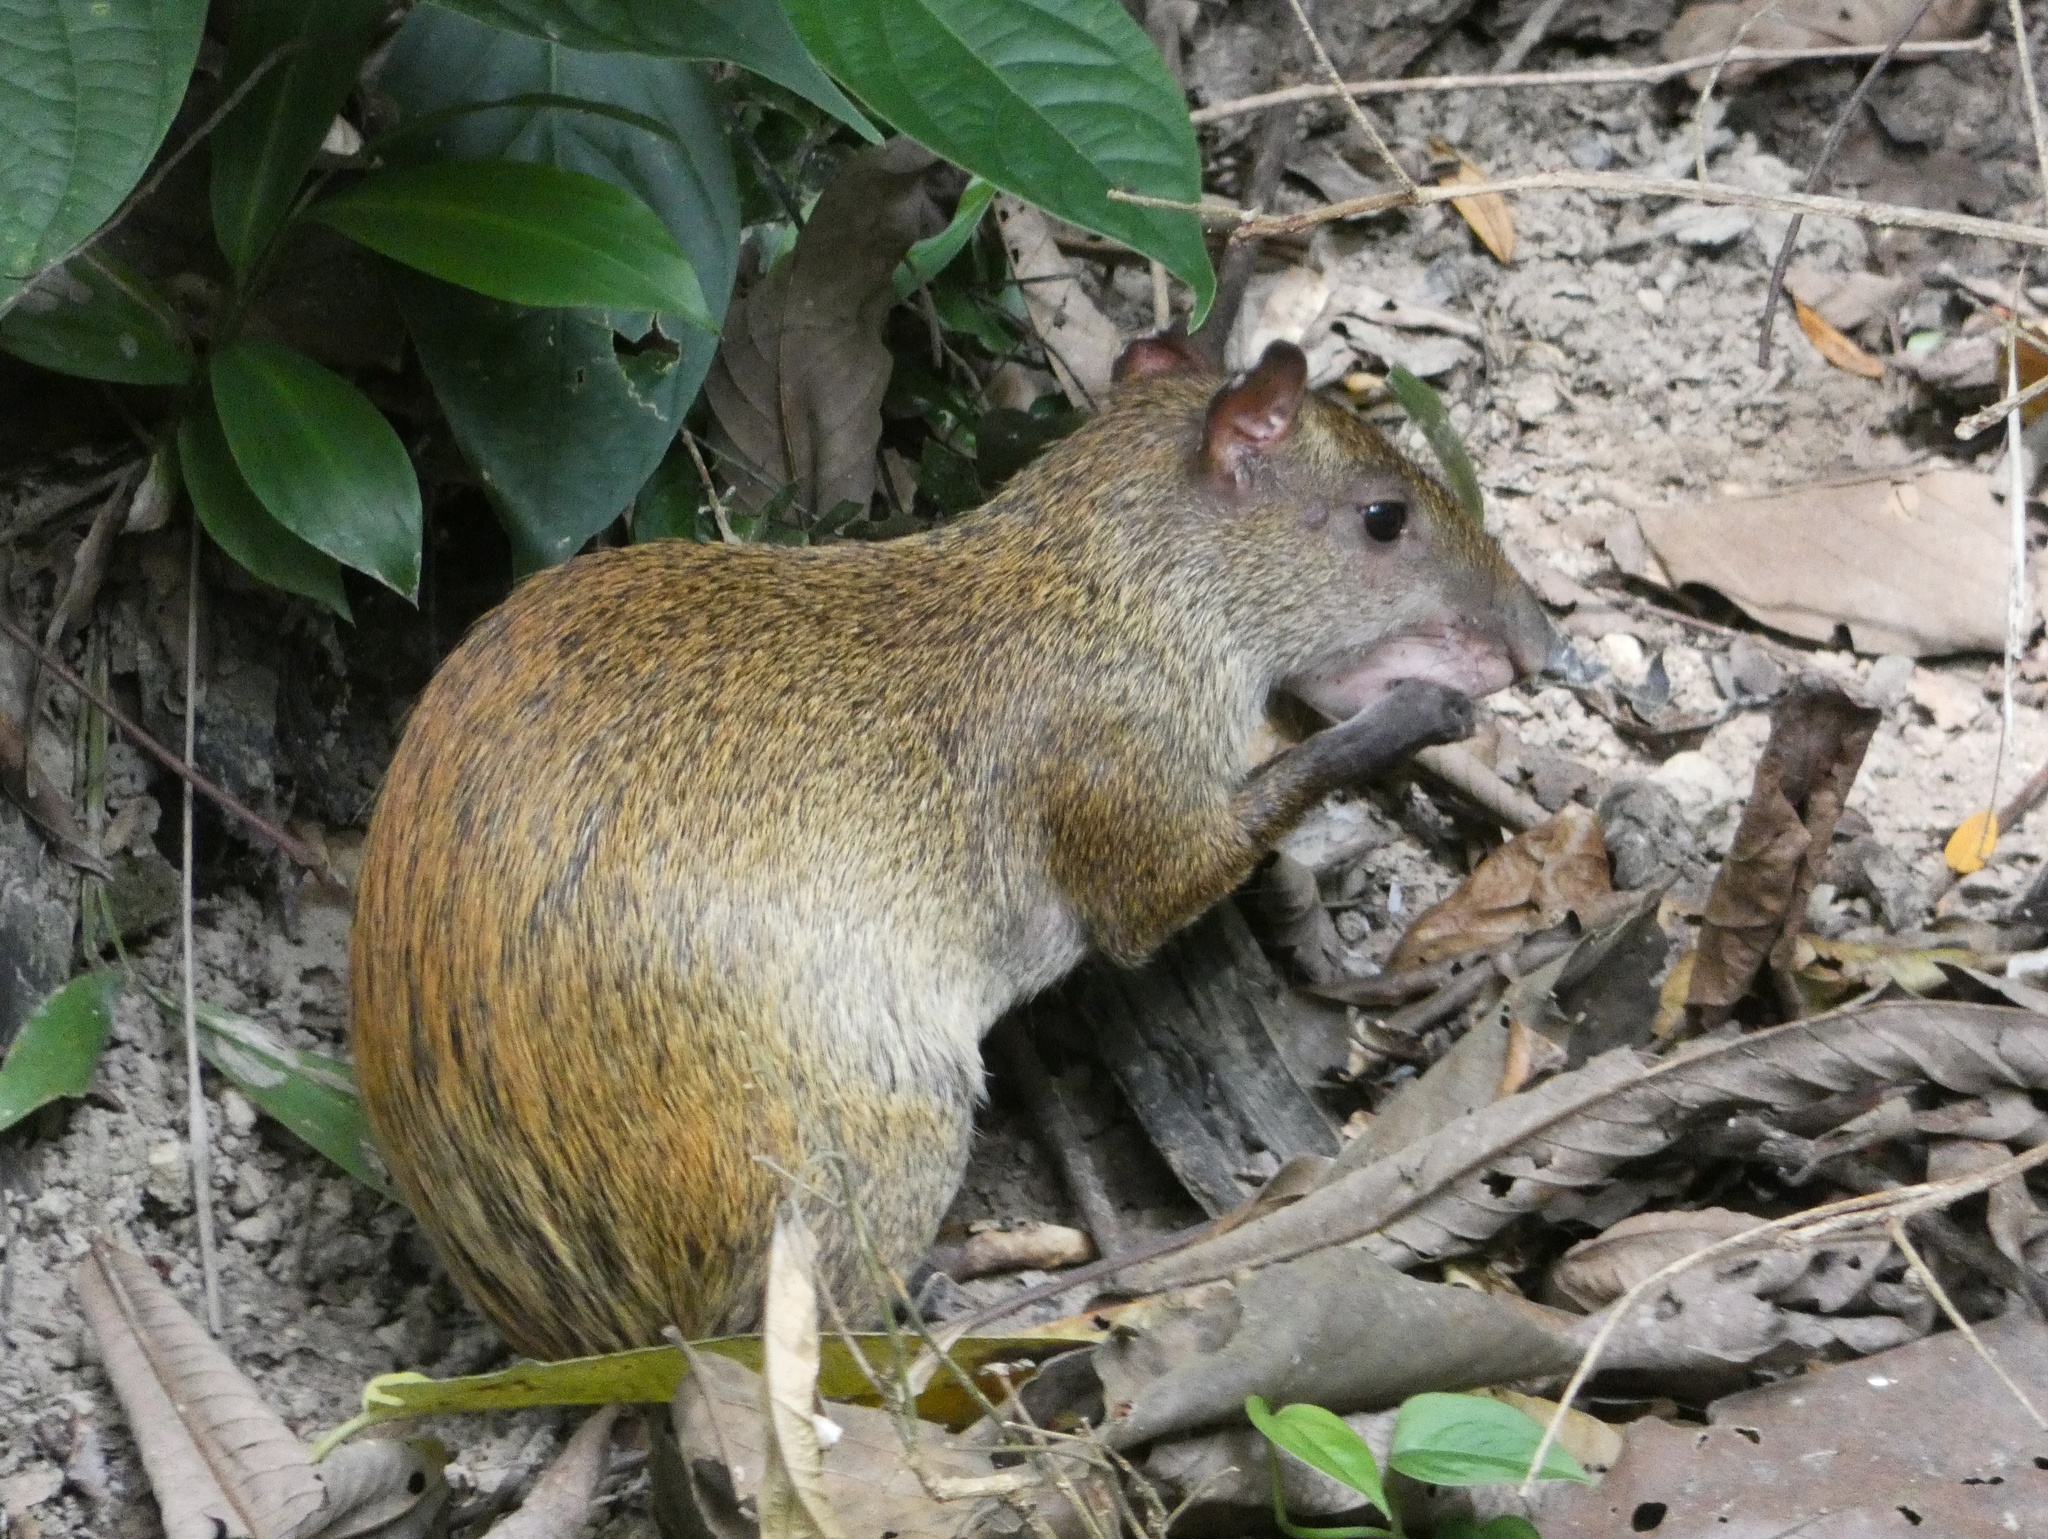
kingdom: Animalia
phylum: Chordata
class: Mammalia
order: Rodentia
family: Dasyproctidae
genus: Dasyprocta
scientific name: Dasyprocta punctata
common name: Central american agouti
